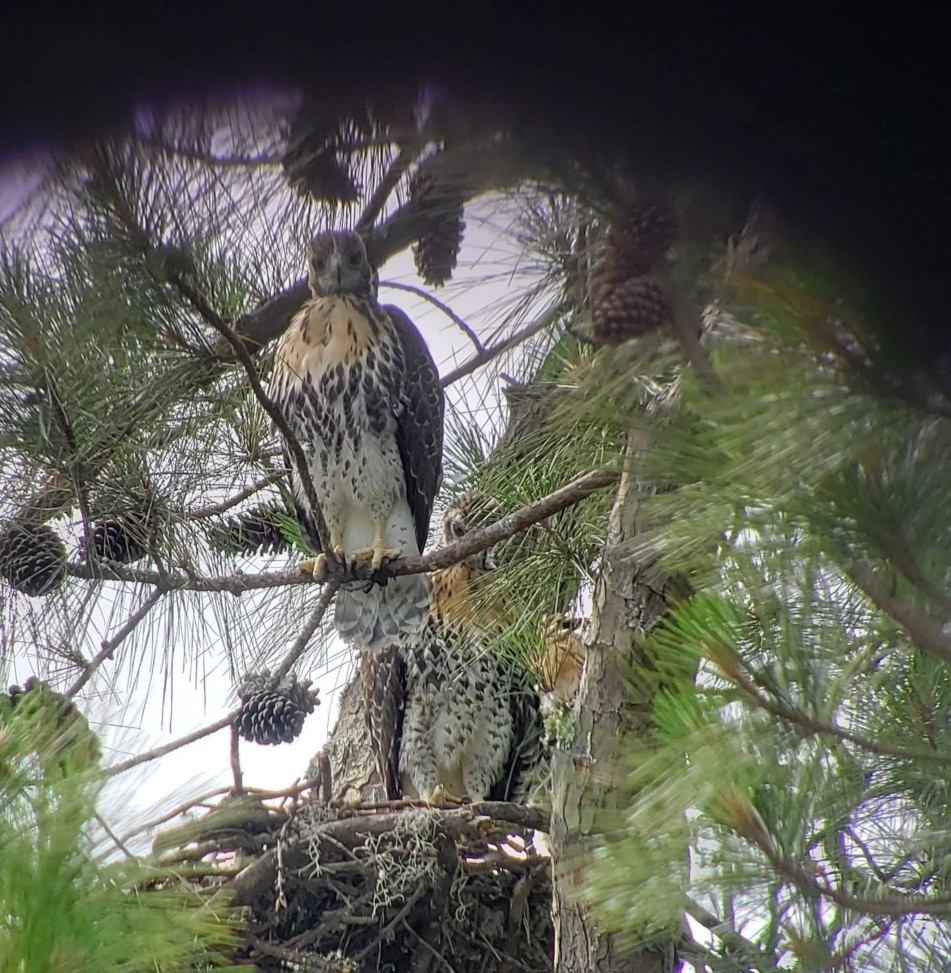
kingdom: Animalia
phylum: Chordata
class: Aves
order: Accipitriformes
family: Accipitridae
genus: Buteo
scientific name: Buteo jamaicensis
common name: Red-tailed hawk
